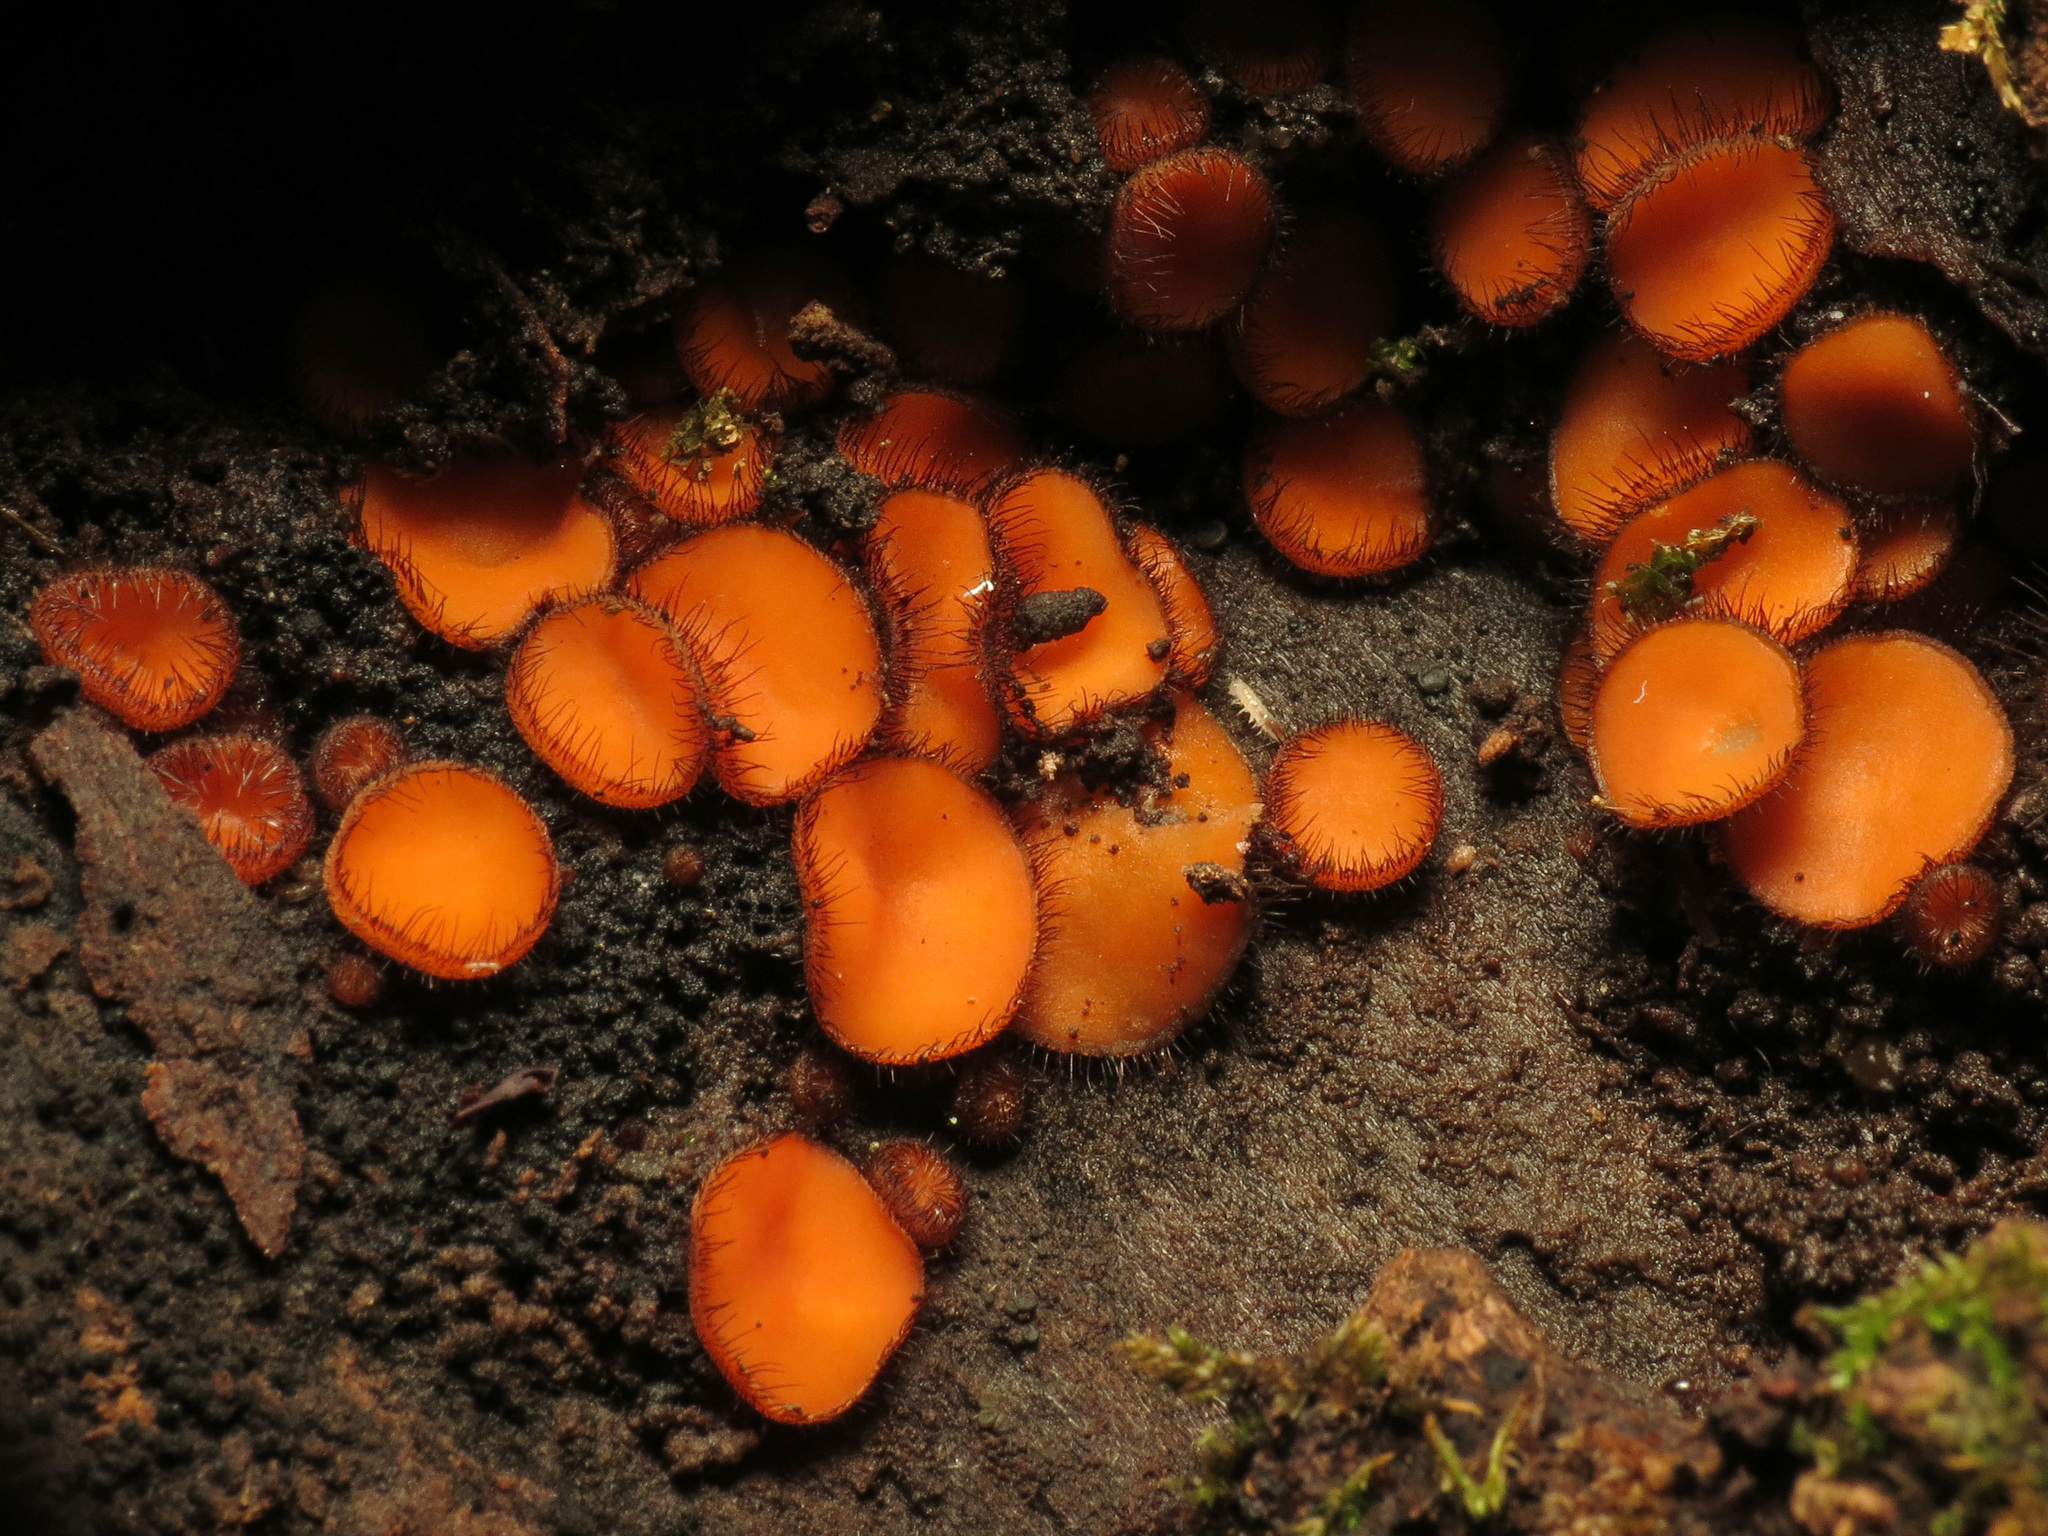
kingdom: Fungi
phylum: Ascomycota
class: Pezizomycetes
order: Pezizales
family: Pyronemataceae
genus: Scutellinia
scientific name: Scutellinia scutellata
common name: Common eyelash
